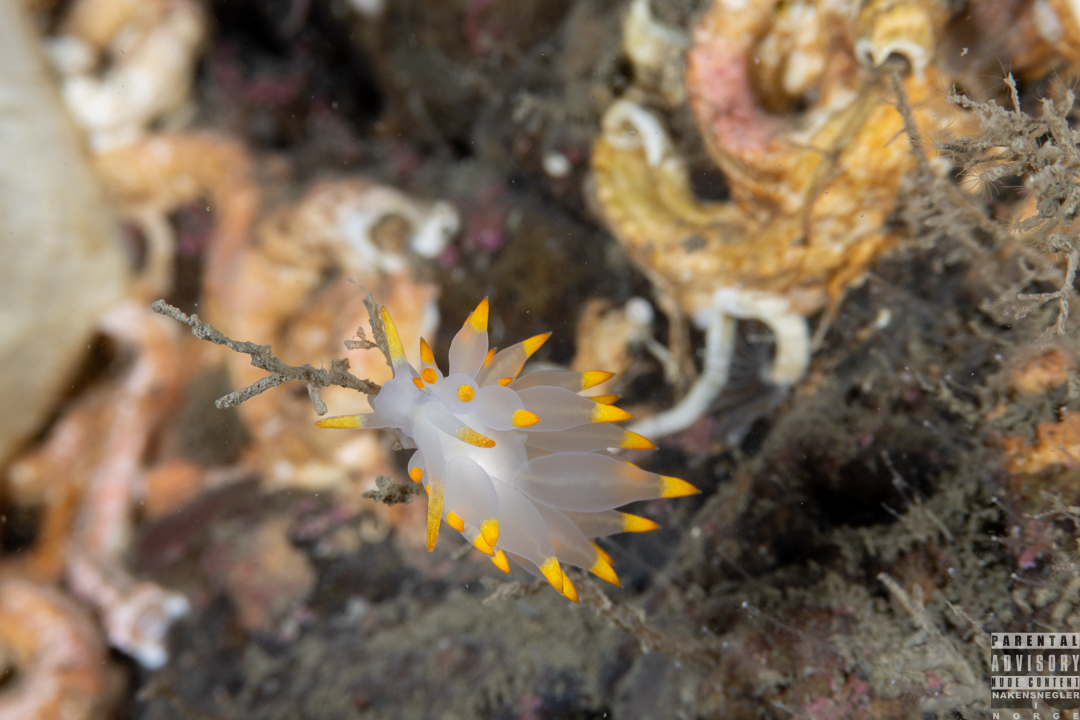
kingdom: Animalia
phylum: Mollusca
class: Gastropoda
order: Nudibranchia
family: Eubranchidae
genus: Amphorina
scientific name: Amphorina farrani
